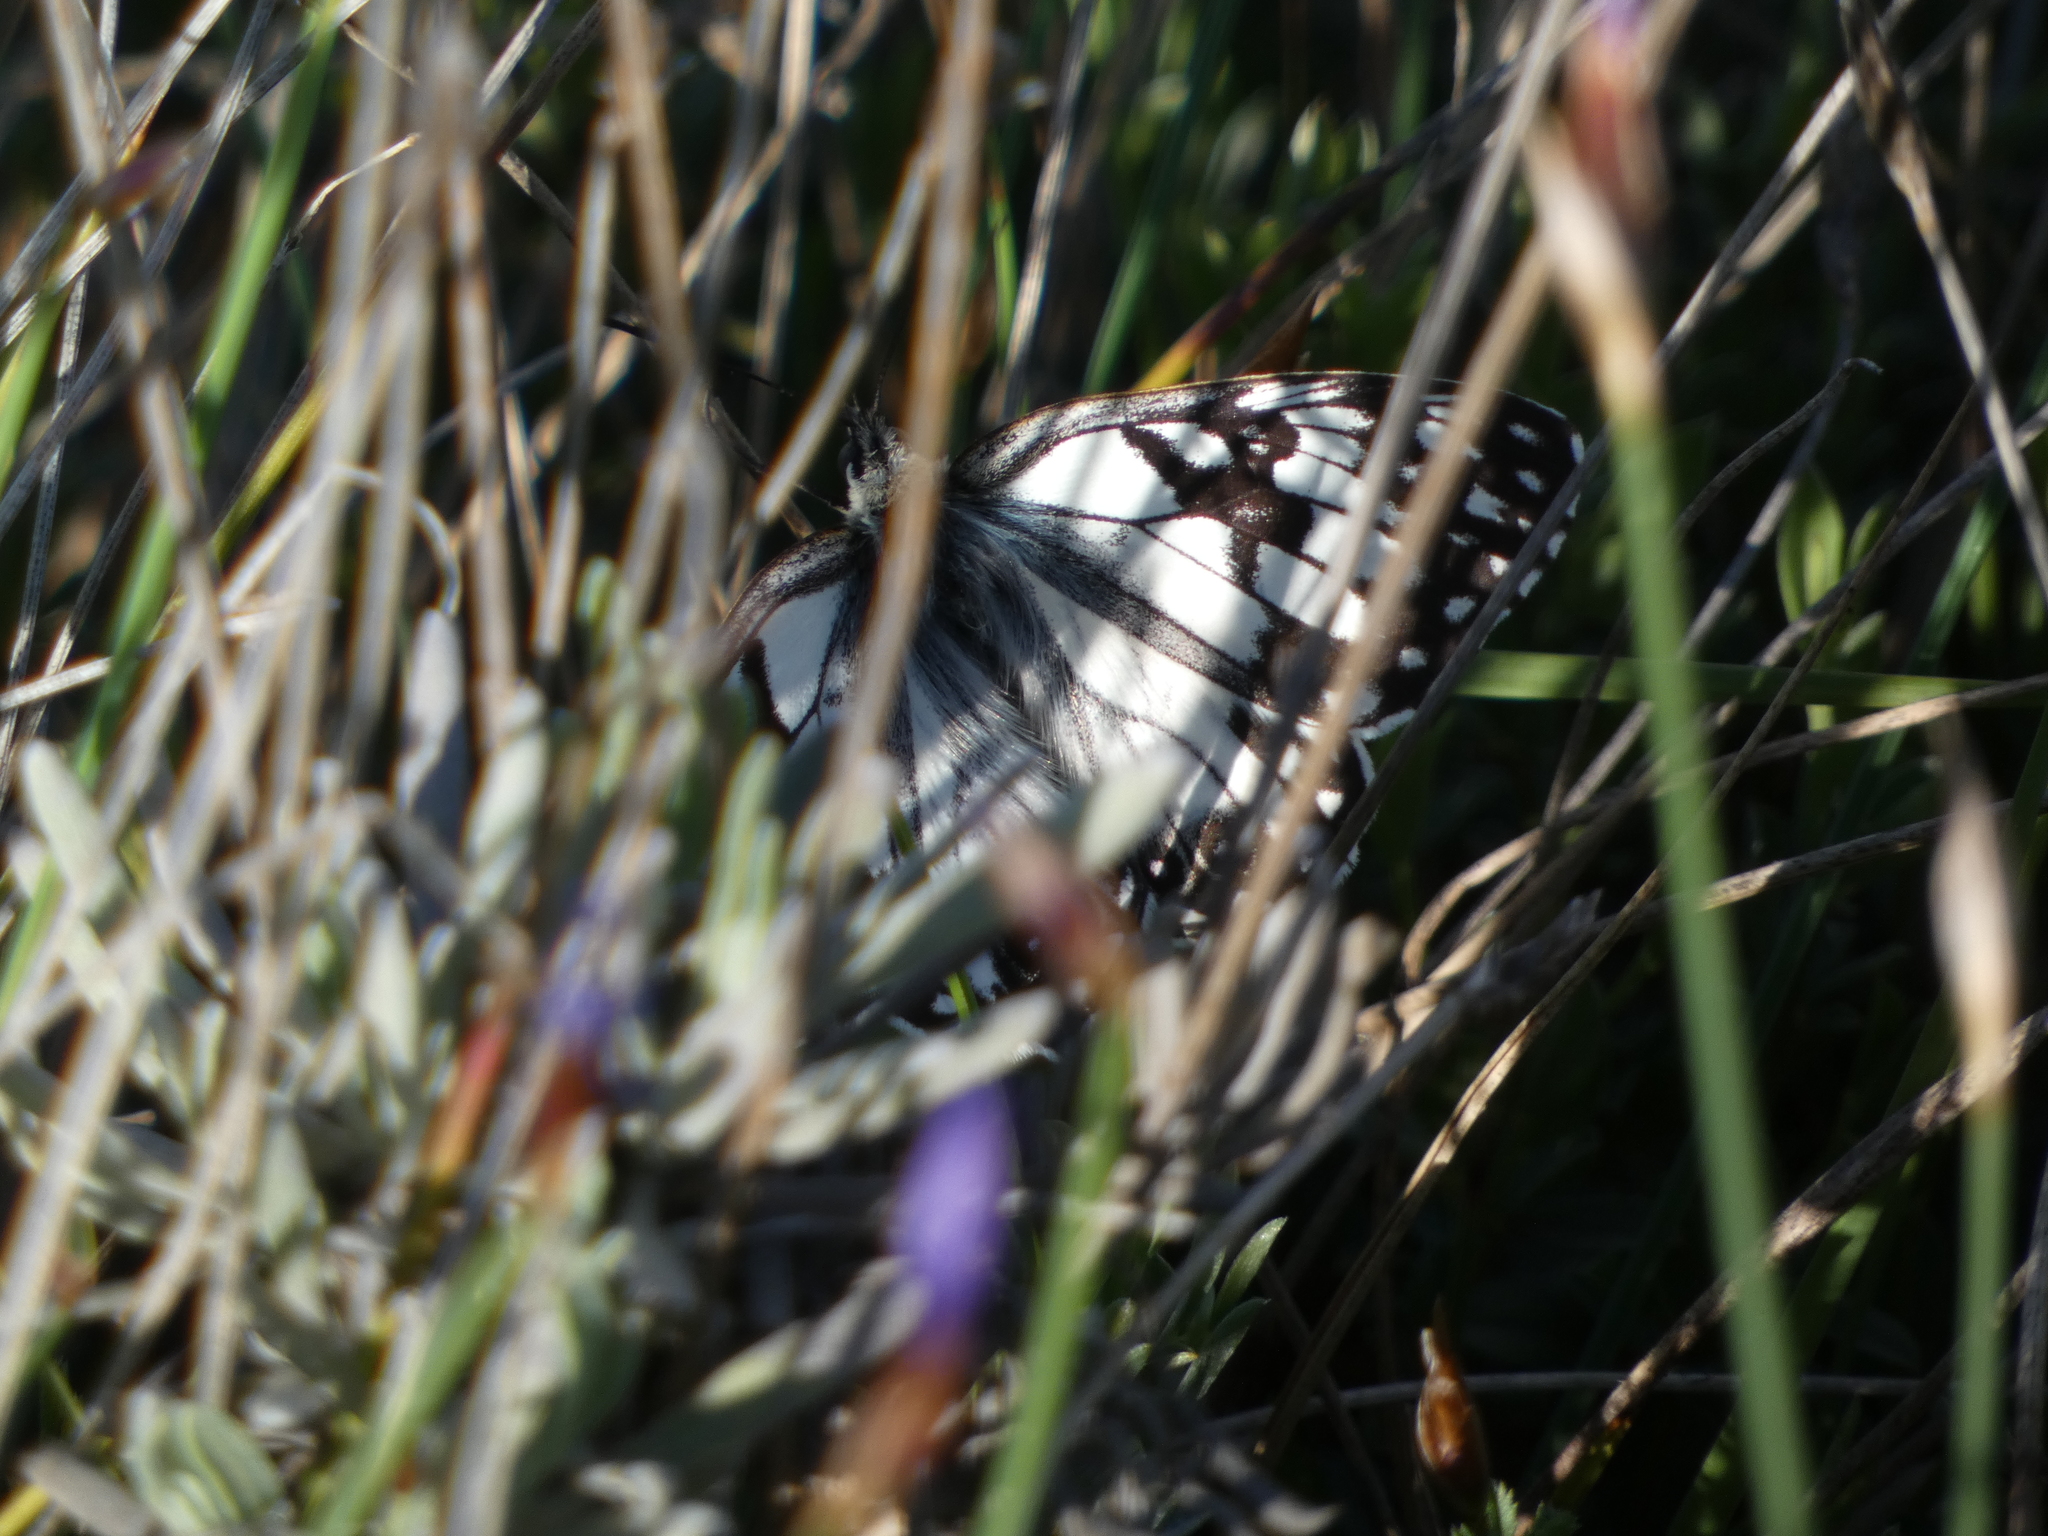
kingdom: Animalia
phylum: Arthropoda
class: Insecta
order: Lepidoptera
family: Nymphalidae
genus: Melanargia
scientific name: Melanargia occitanica
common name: Western marbled white
